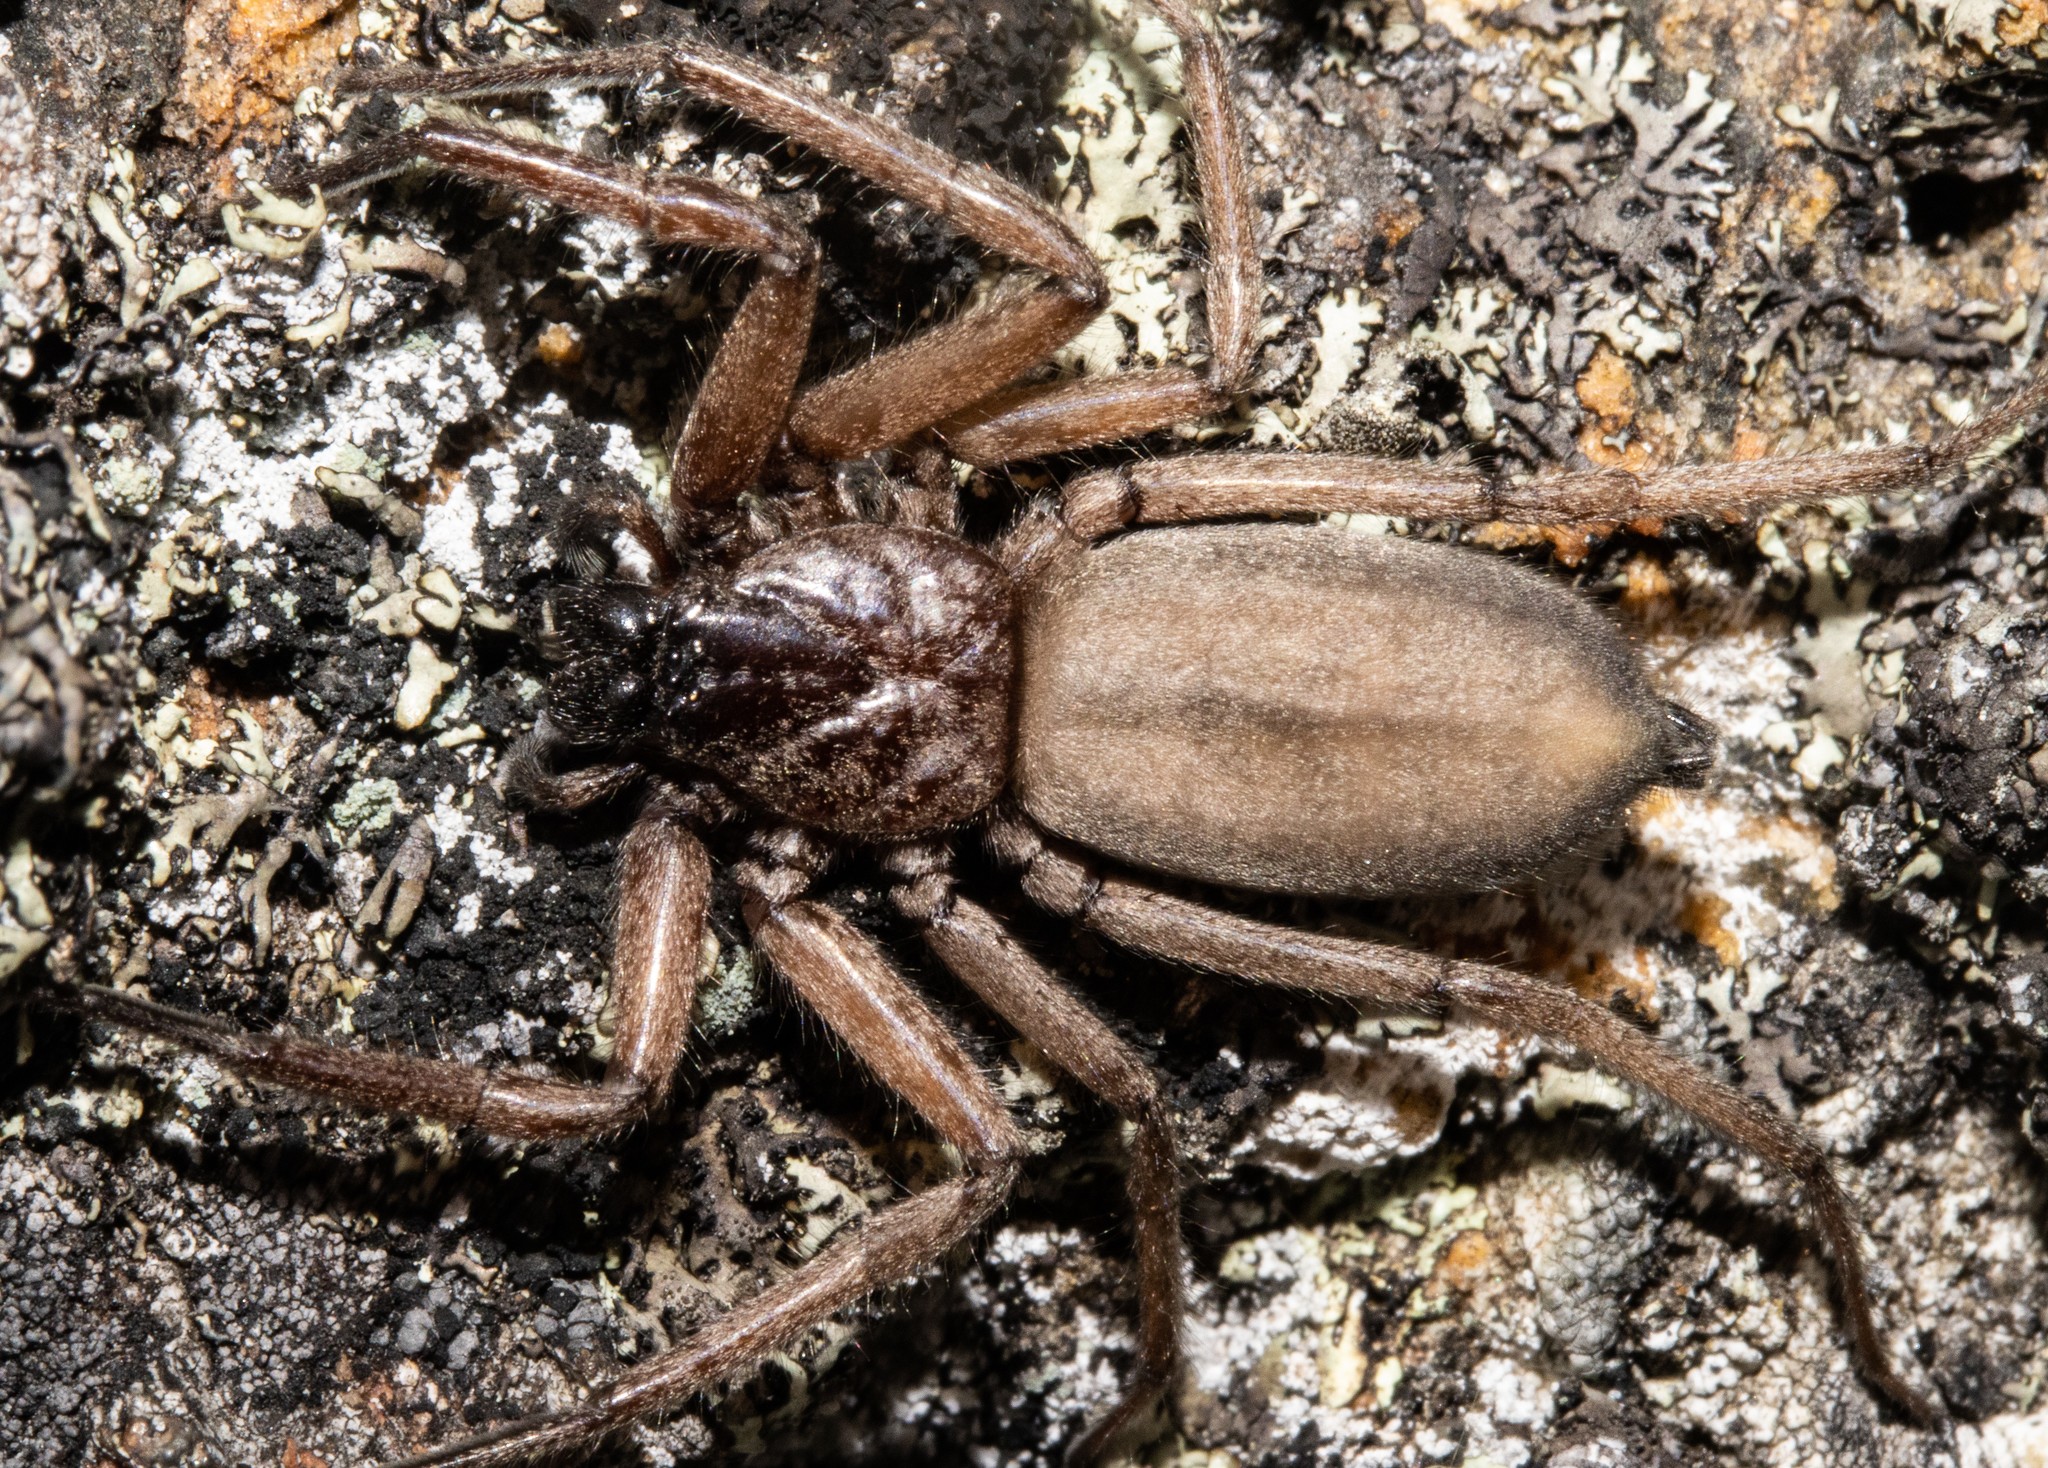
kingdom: Animalia
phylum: Arthropoda
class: Arachnida
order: Araneae
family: Trochanteriidae
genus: Hemicloea
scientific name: Hemicloea rogenhoferi
